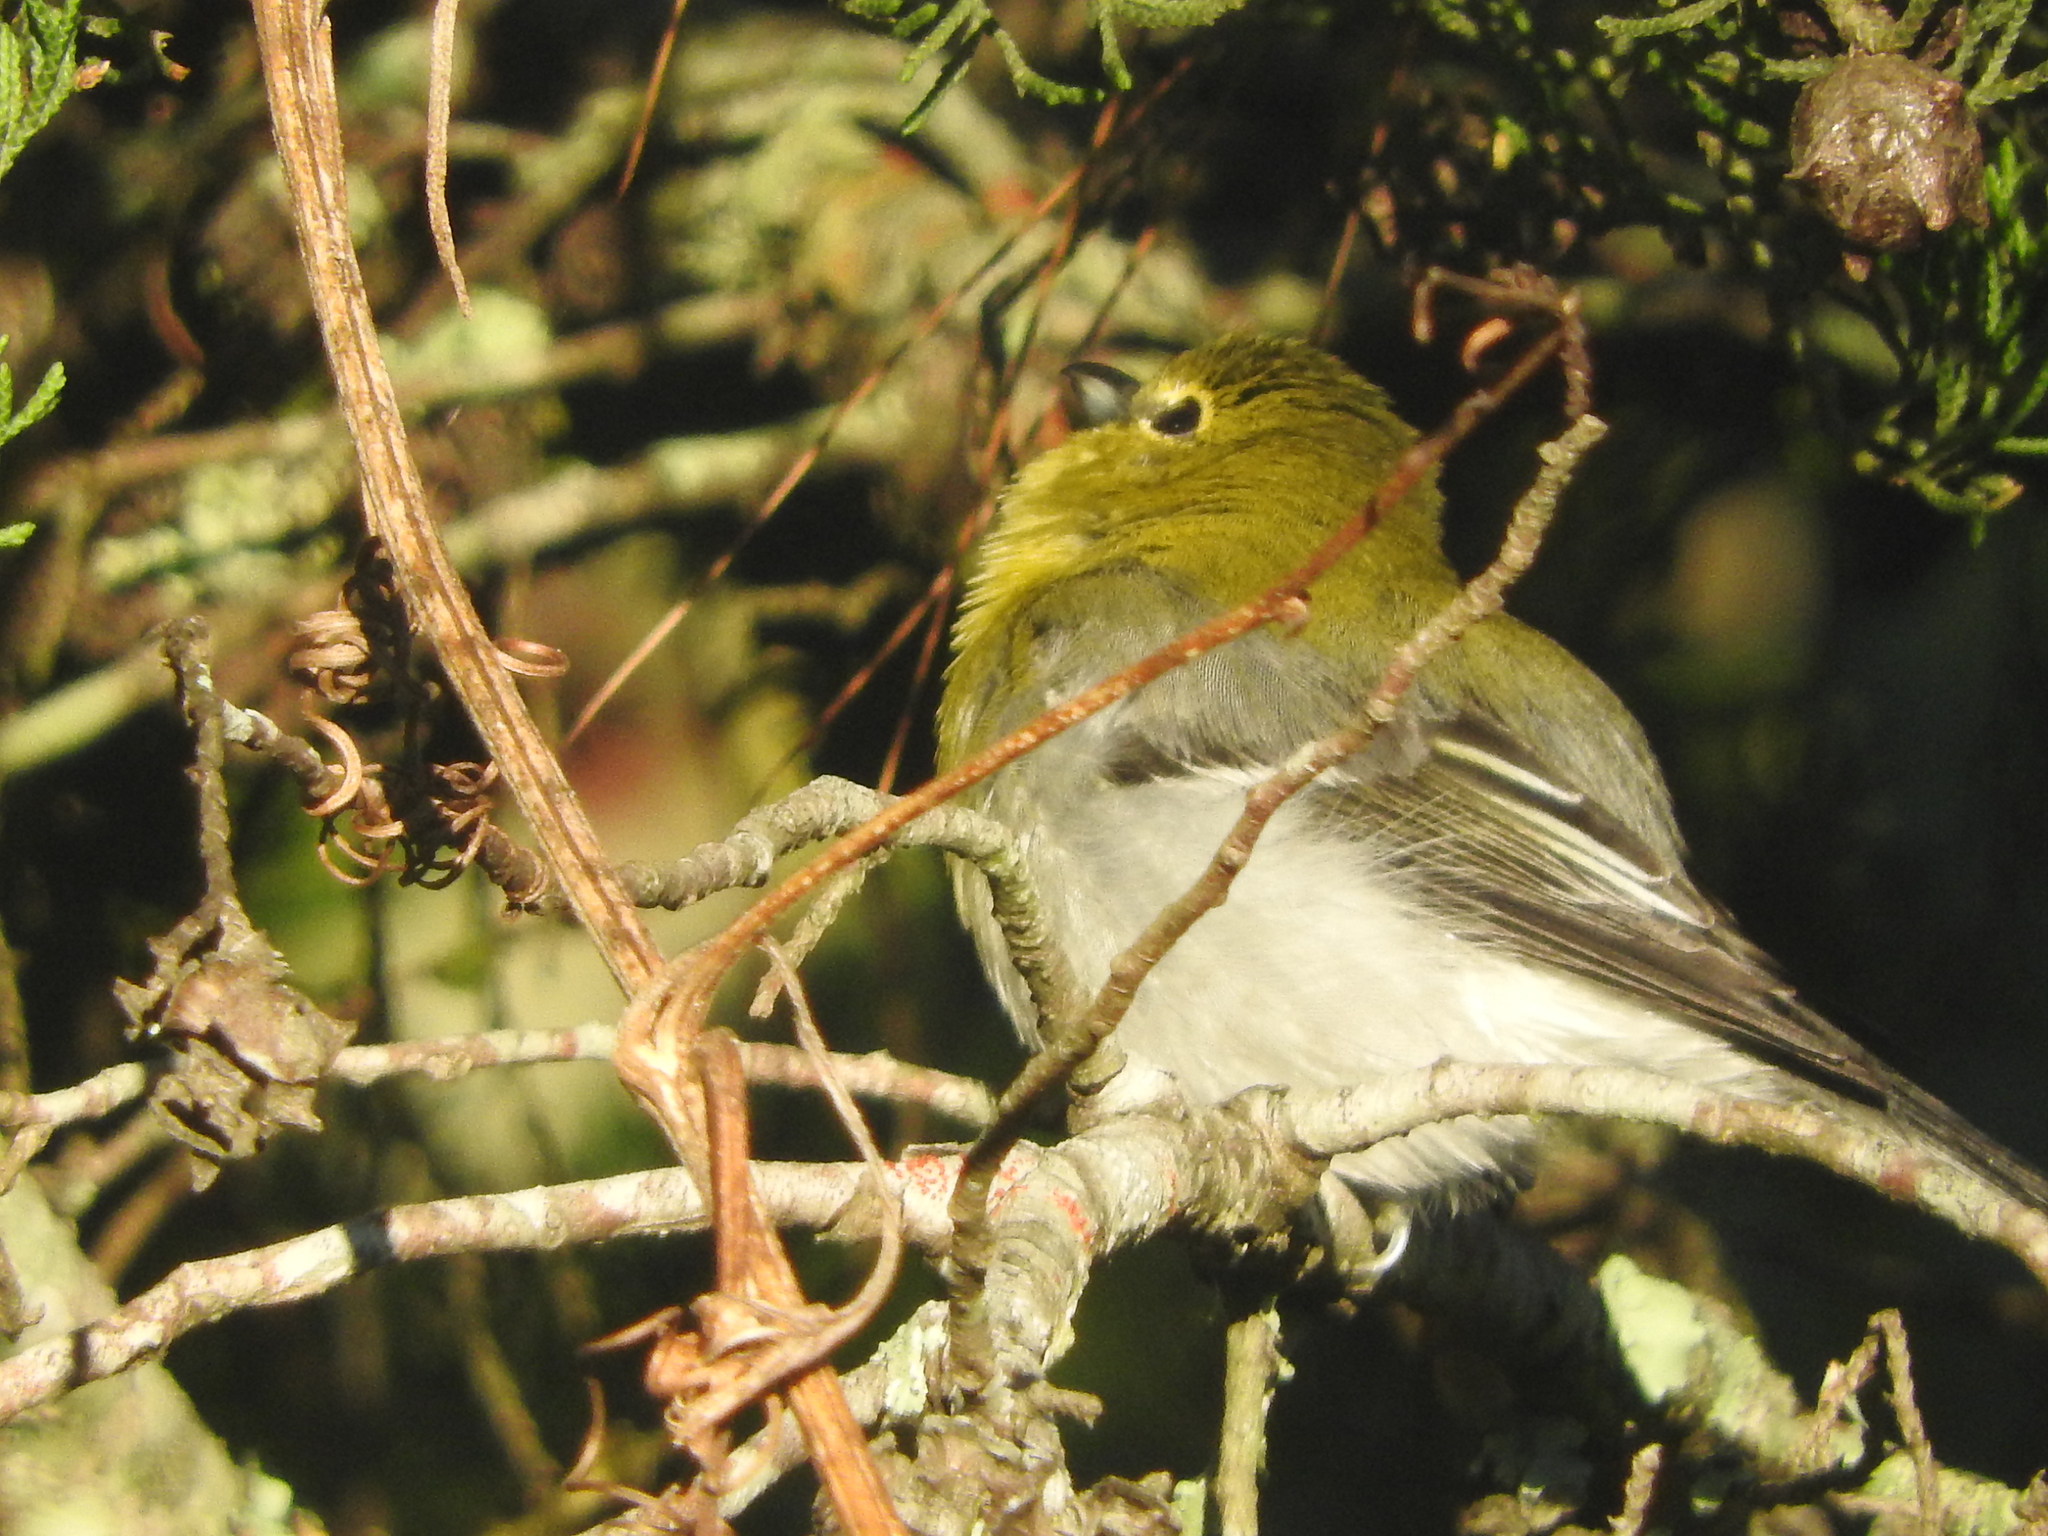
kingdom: Animalia
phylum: Chordata
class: Aves
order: Passeriformes
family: Vireonidae
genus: Vireo
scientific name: Vireo flavifrons
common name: Yellow-throated vireo
